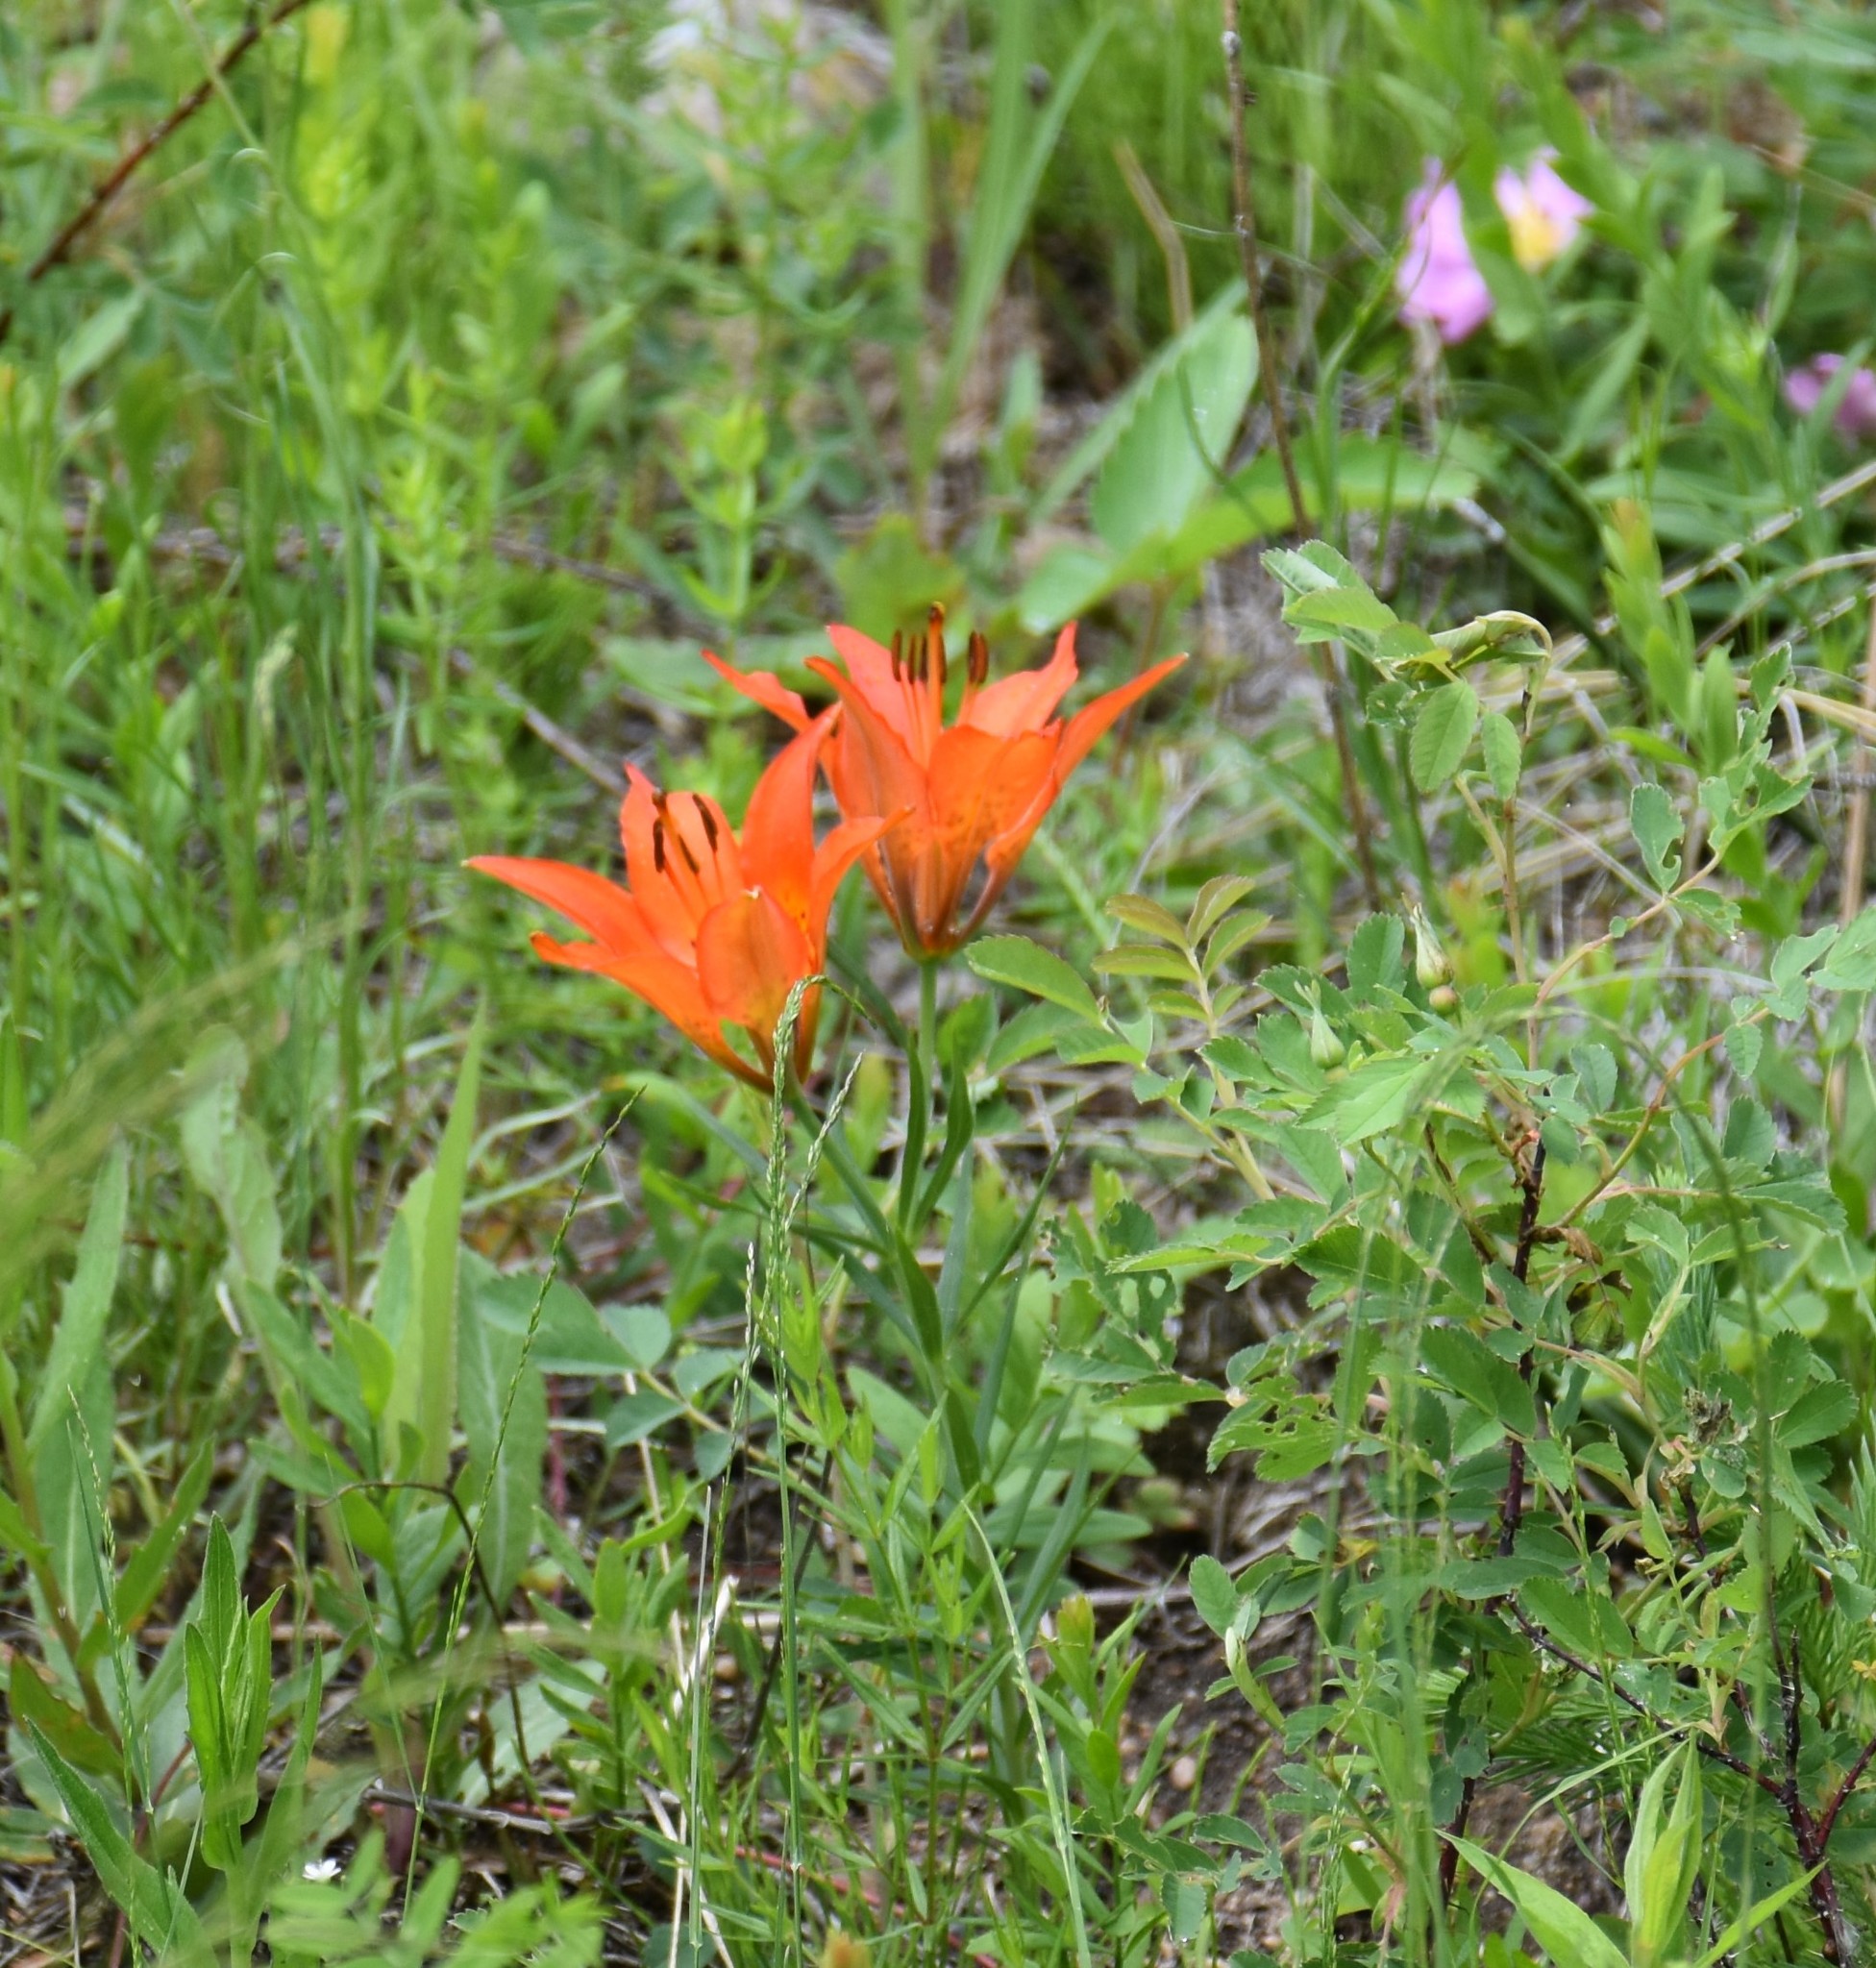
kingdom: Plantae
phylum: Tracheophyta
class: Liliopsida
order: Liliales
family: Liliaceae
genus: Lilium
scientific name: Lilium philadelphicum
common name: Red lily
